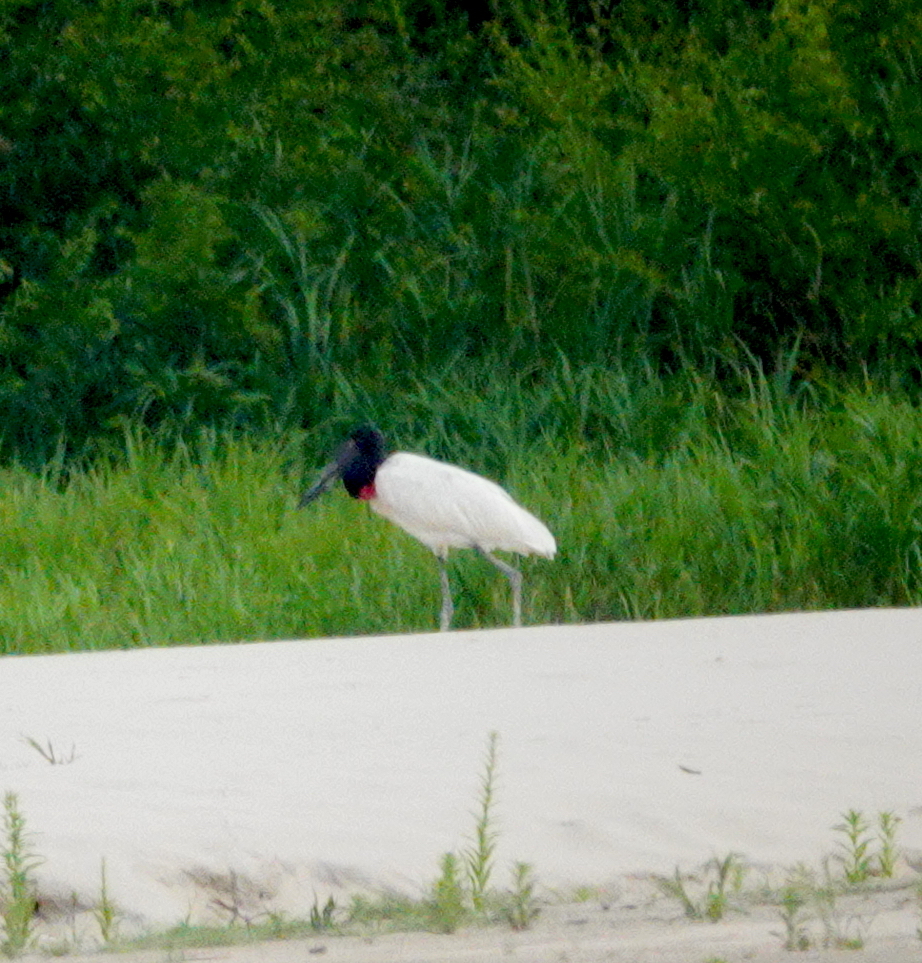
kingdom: Animalia
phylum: Chordata
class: Aves
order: Ciconiiformes
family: Ciconiidae
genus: Jabiru
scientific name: Jabiru mycteria
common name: Jabiru
